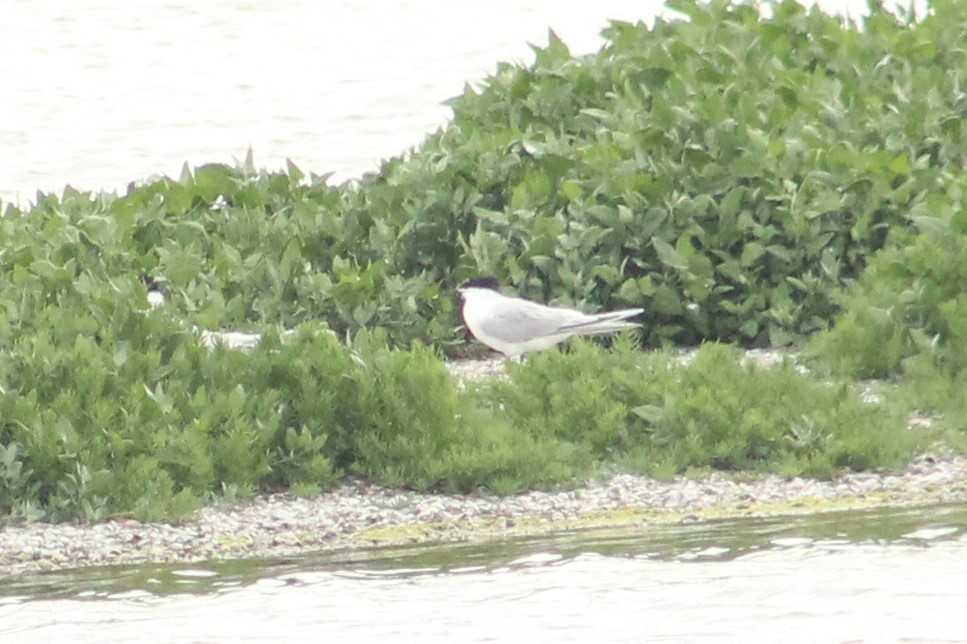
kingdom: Animalia
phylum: Chordata
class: Aves
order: Charadriiformes
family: Laridae
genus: Thalasseus
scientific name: Thalasseus sandvicensis
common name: Sandwich tern
